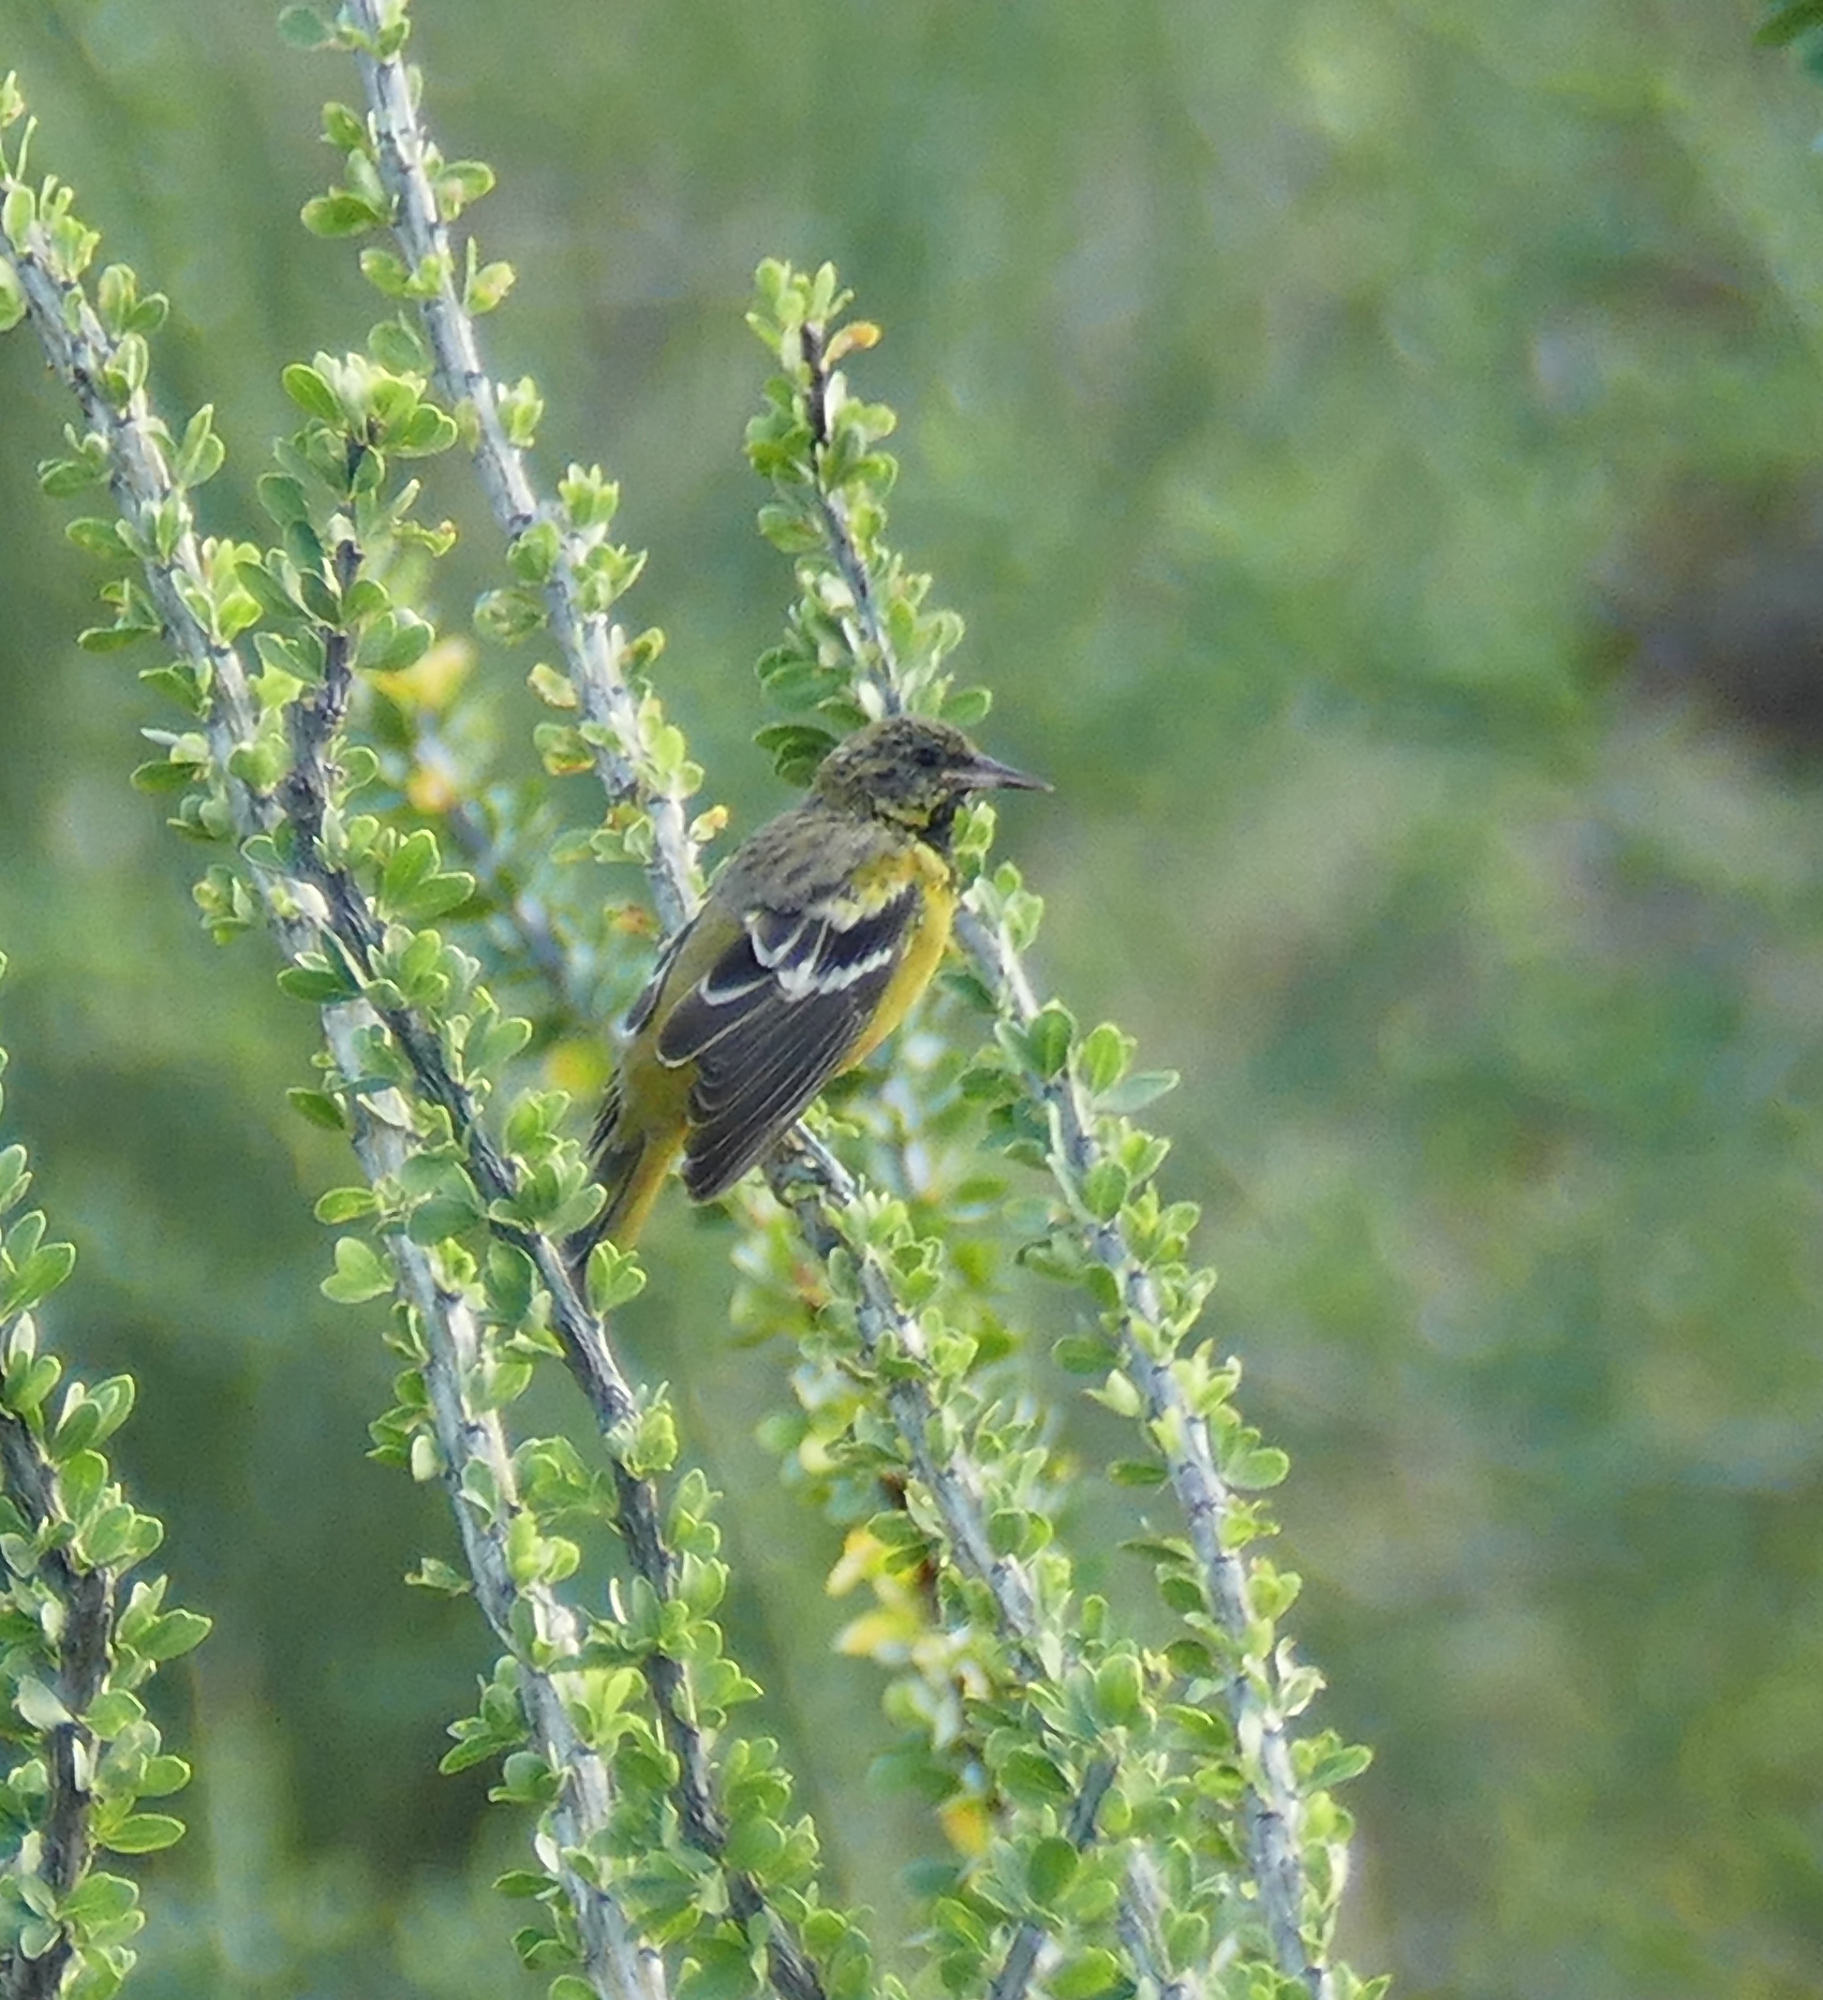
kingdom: Animalia
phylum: Chordata
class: Aves
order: Passeriformes
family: Icteridae
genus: Icterus
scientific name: Icterus parisorum
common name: Scott's oriole
